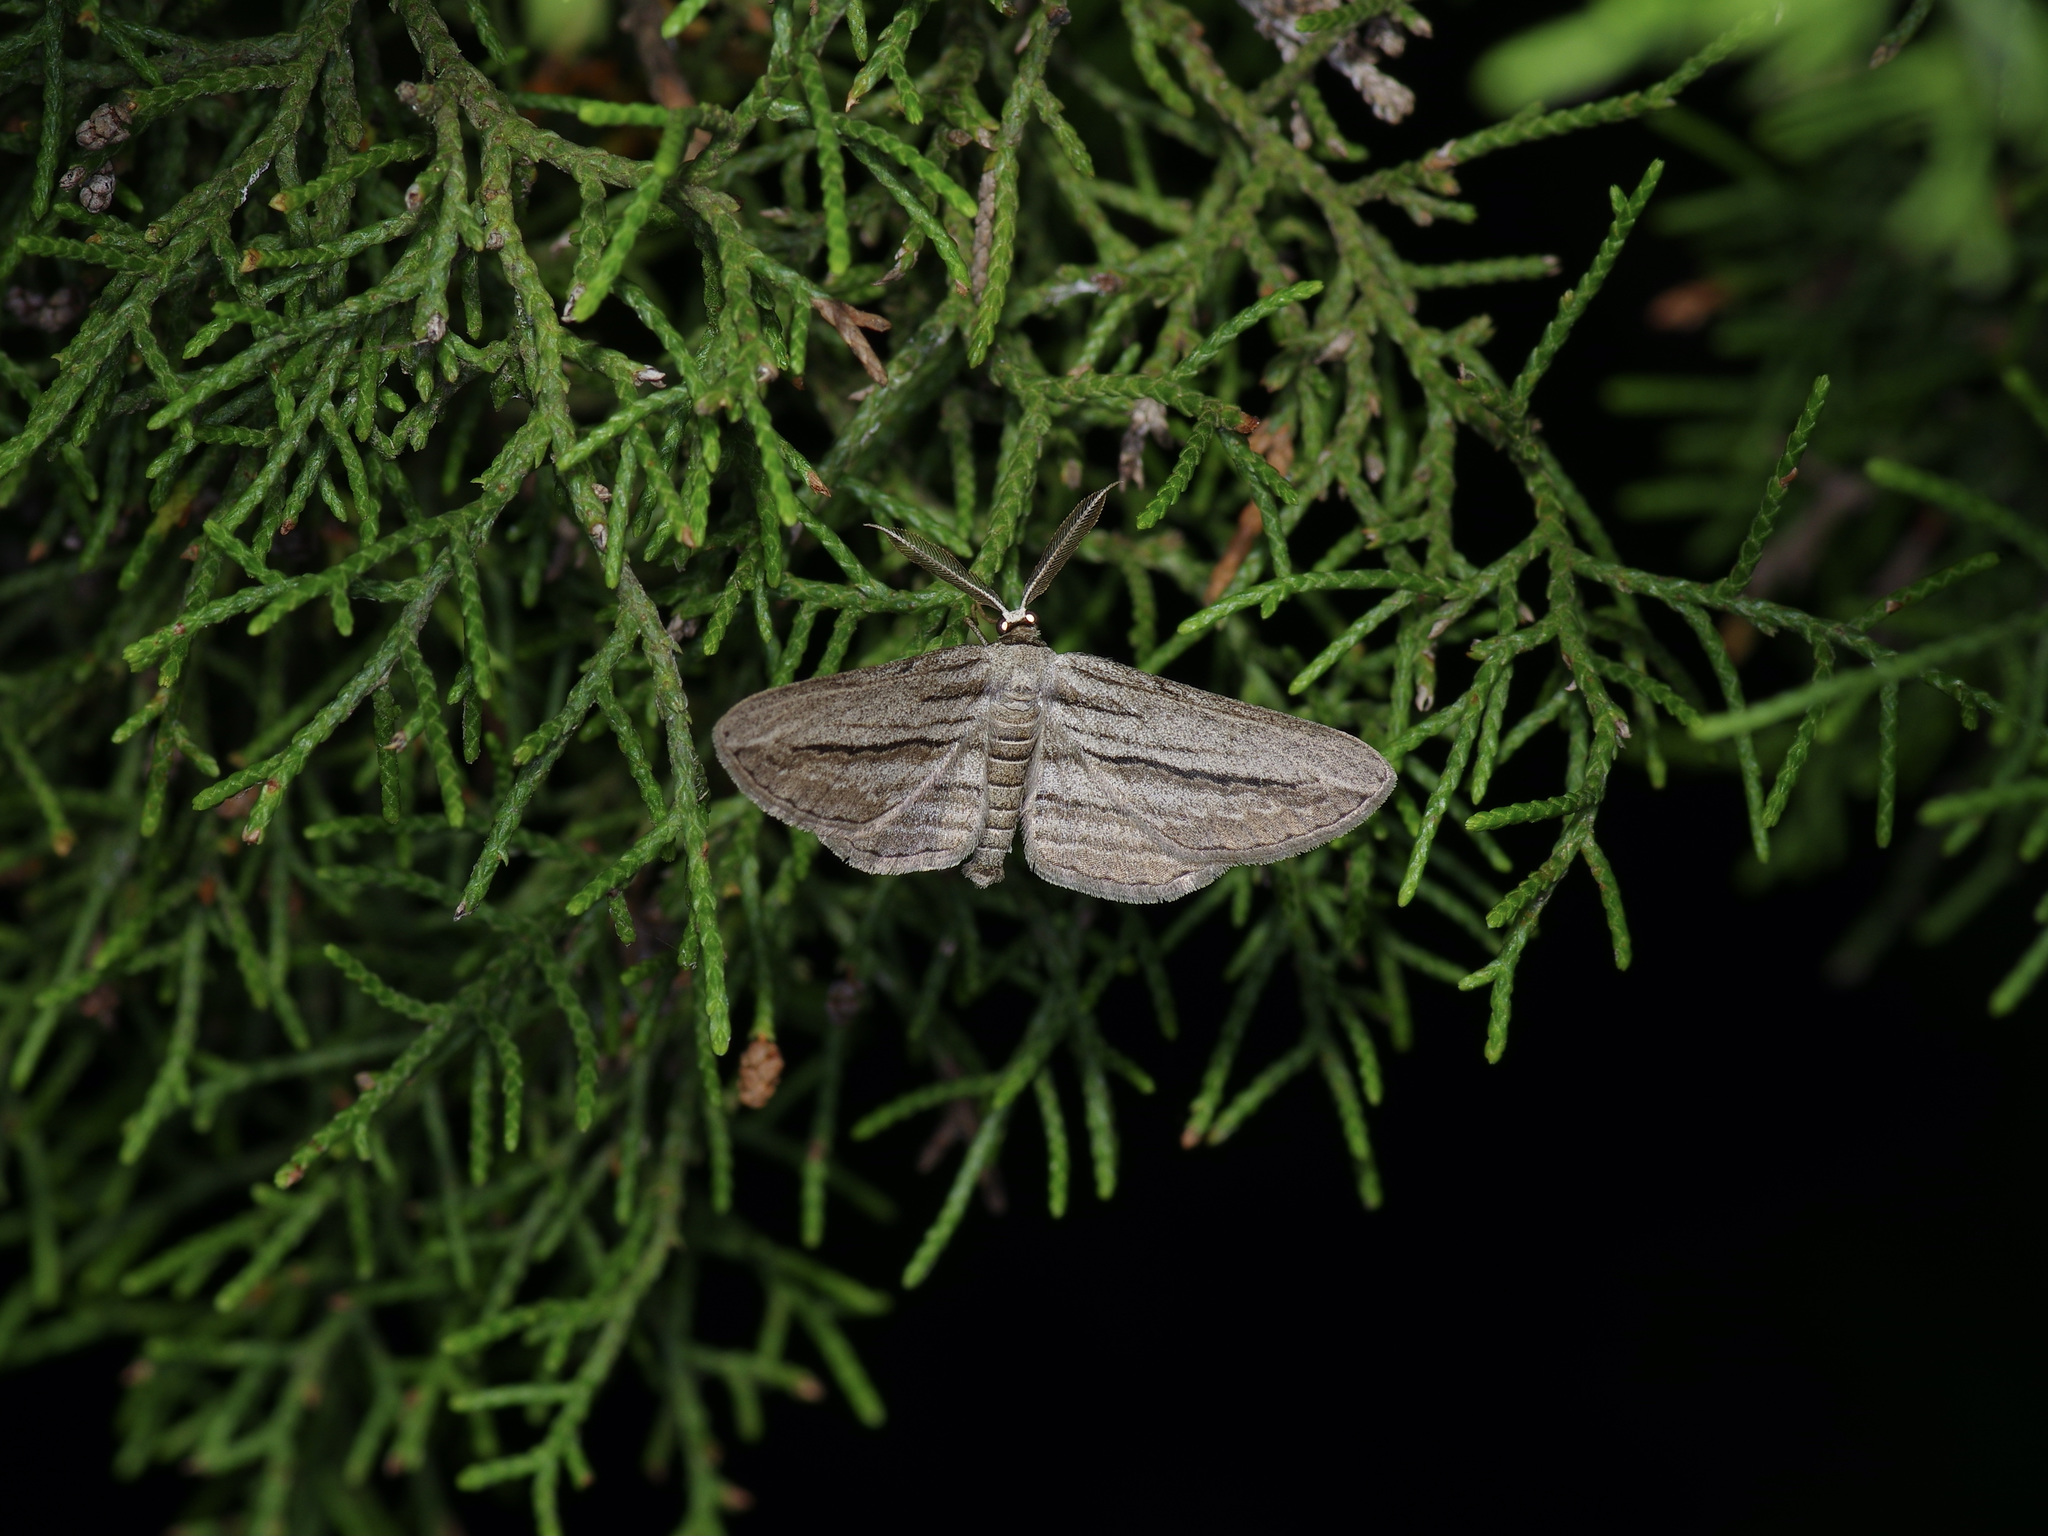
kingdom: Animalia
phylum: Arthropoda
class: Insecta
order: Lepidoptera
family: Geometridae
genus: Glena
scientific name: Glena quinquelinearia
